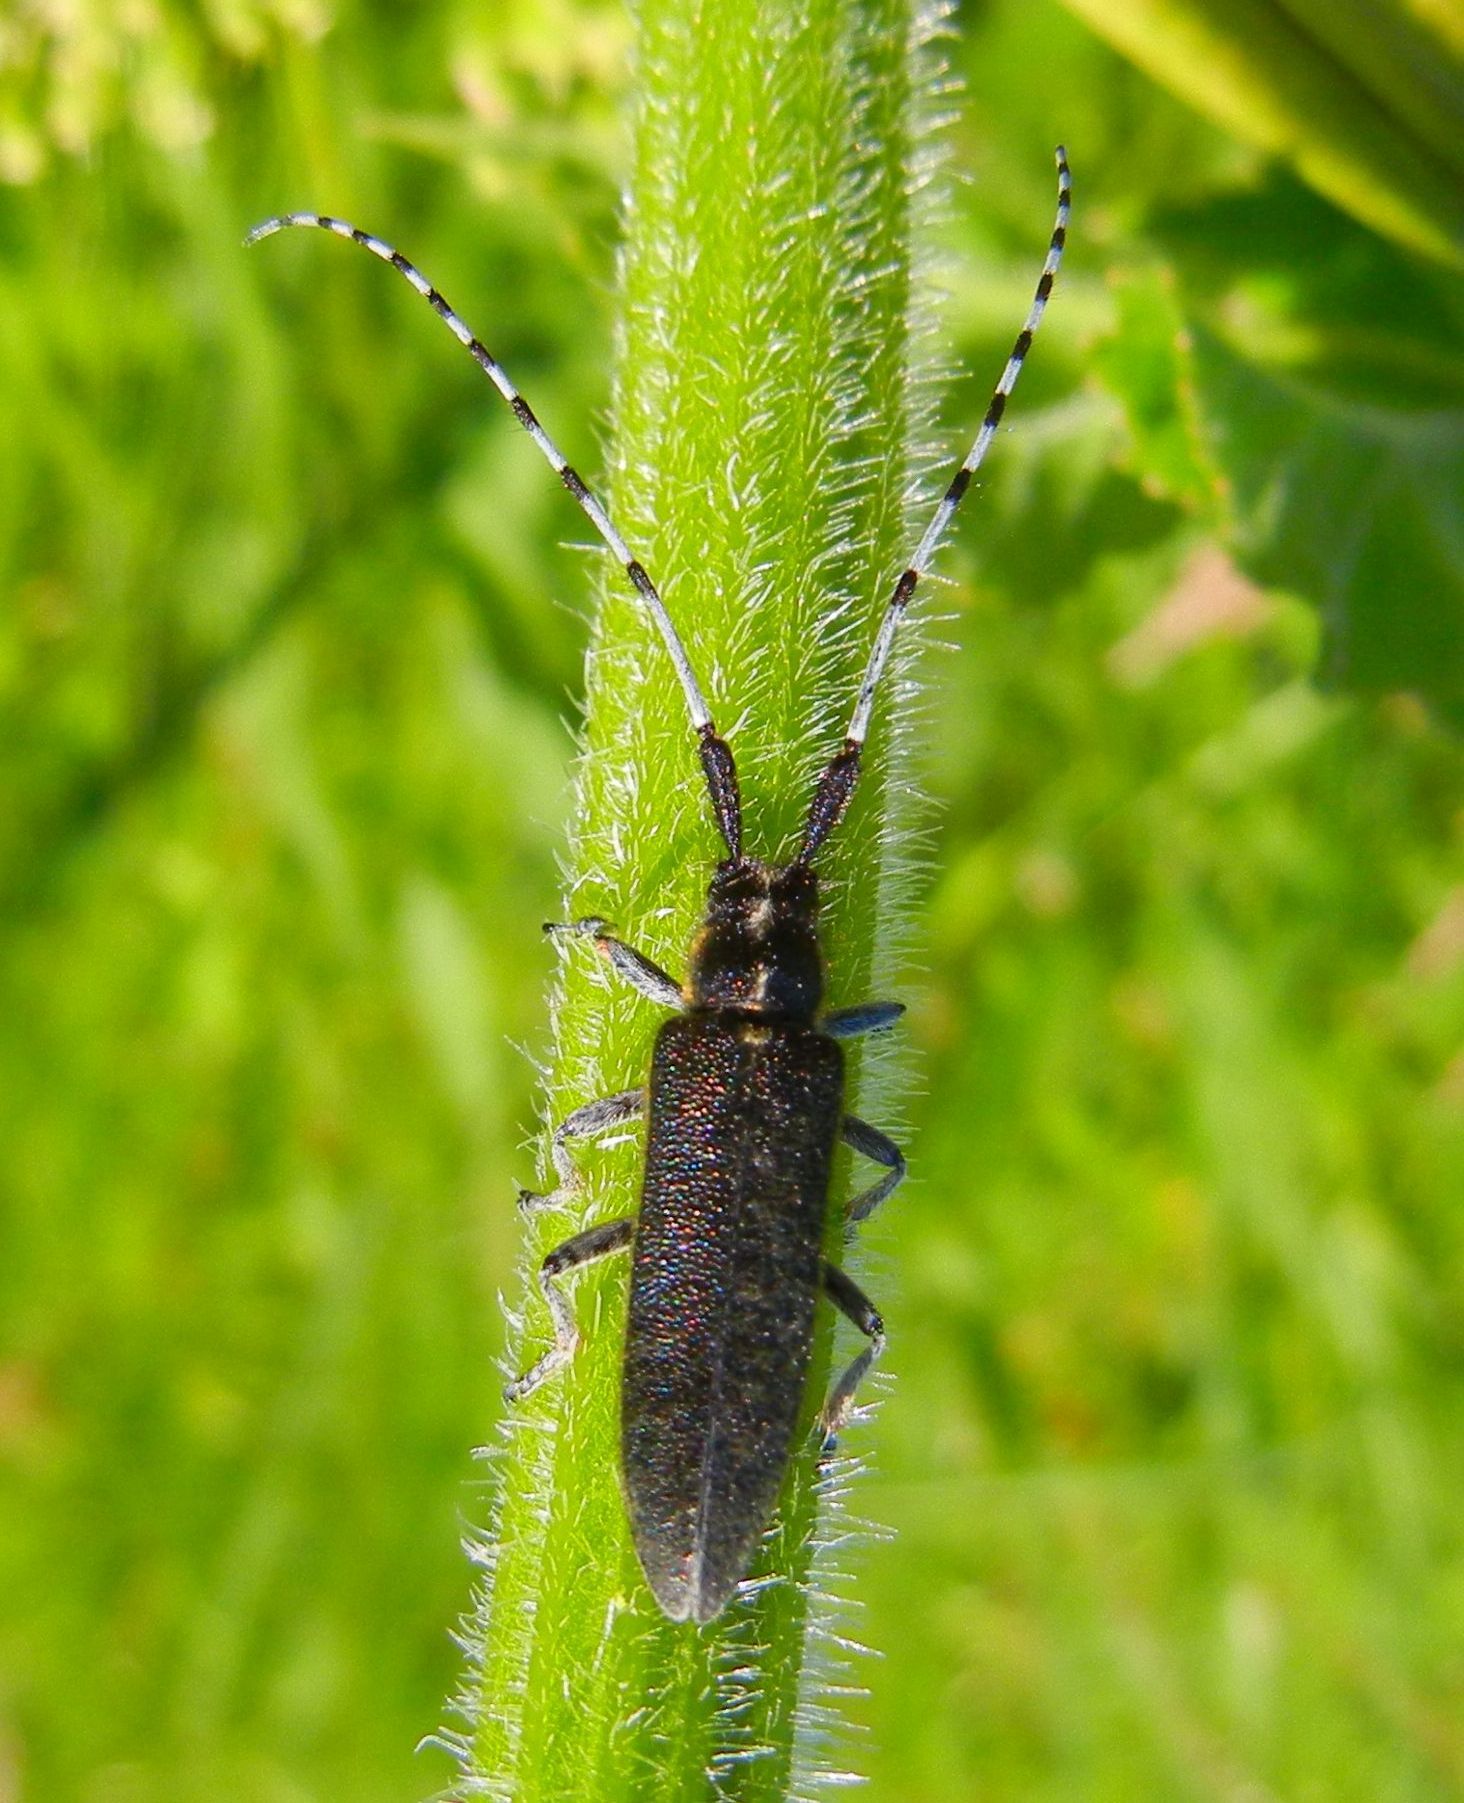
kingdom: Animalia
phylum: Arthropoda
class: Insecta
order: Coleoptera
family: Cerambycidae
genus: Agapanthia
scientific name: Agapanthia villosoviridescens
